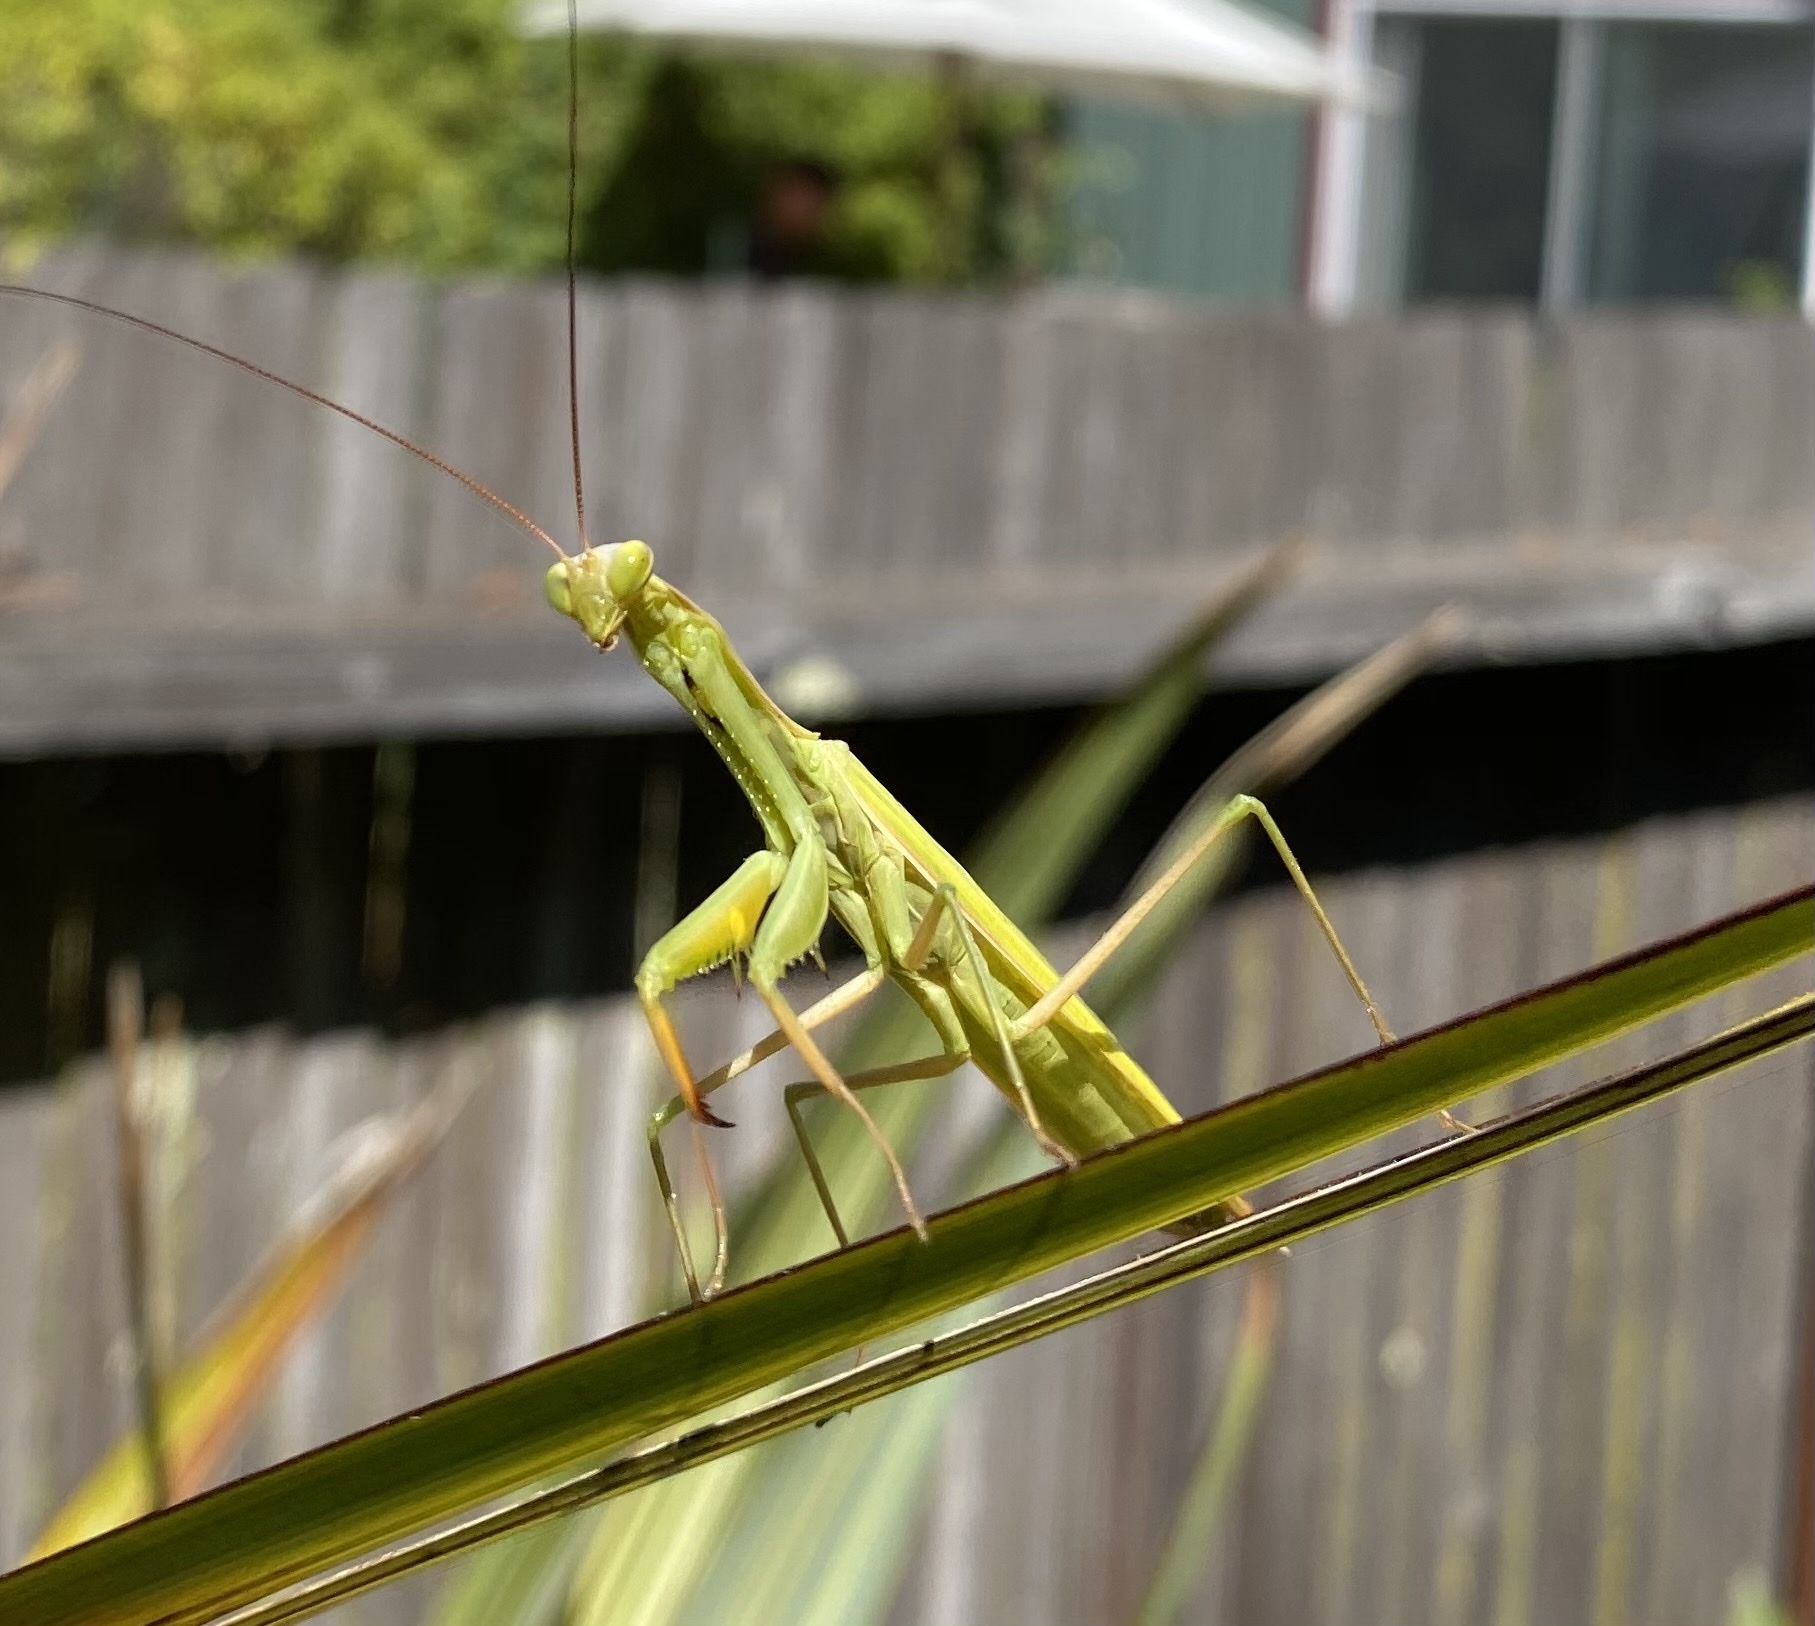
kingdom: Animalia
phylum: Arthropoda
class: Insecta
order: Mantodea
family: Mantidae
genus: Mantis
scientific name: Mantis religiosa
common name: Praying mantis
